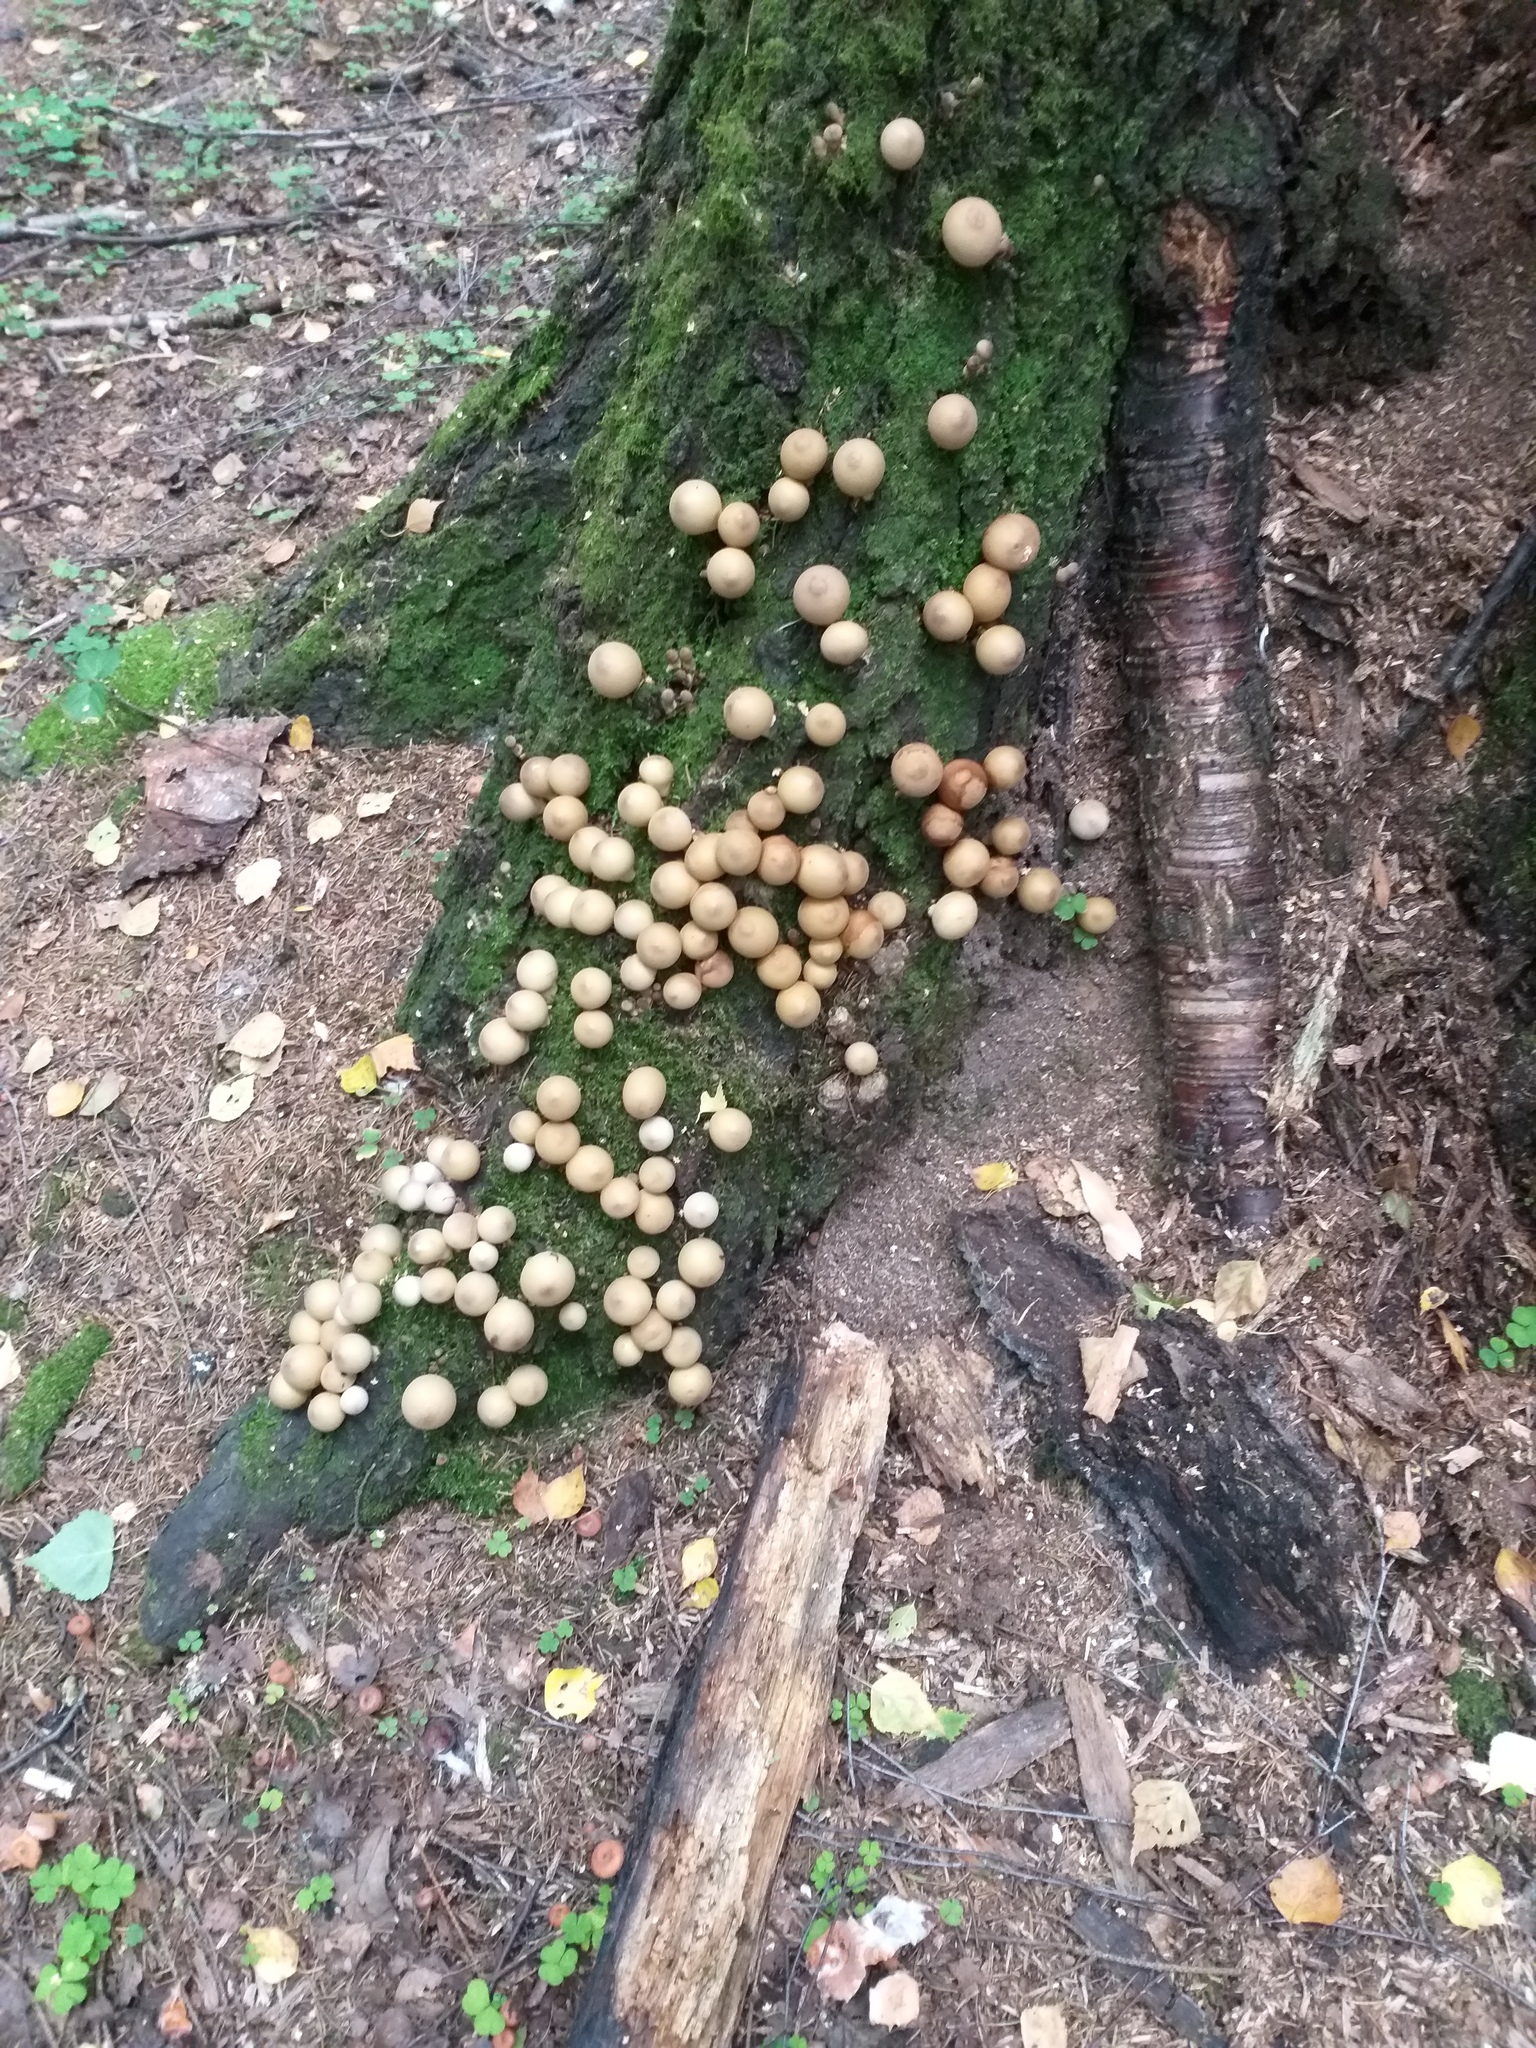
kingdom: Fungi
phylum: Basidiomycota
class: Agaricomycetes
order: Agaricales
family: Lycoperdaceae
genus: Apioperdon
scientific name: Apioperdon pyriforme
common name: Pear-shaped puffball
